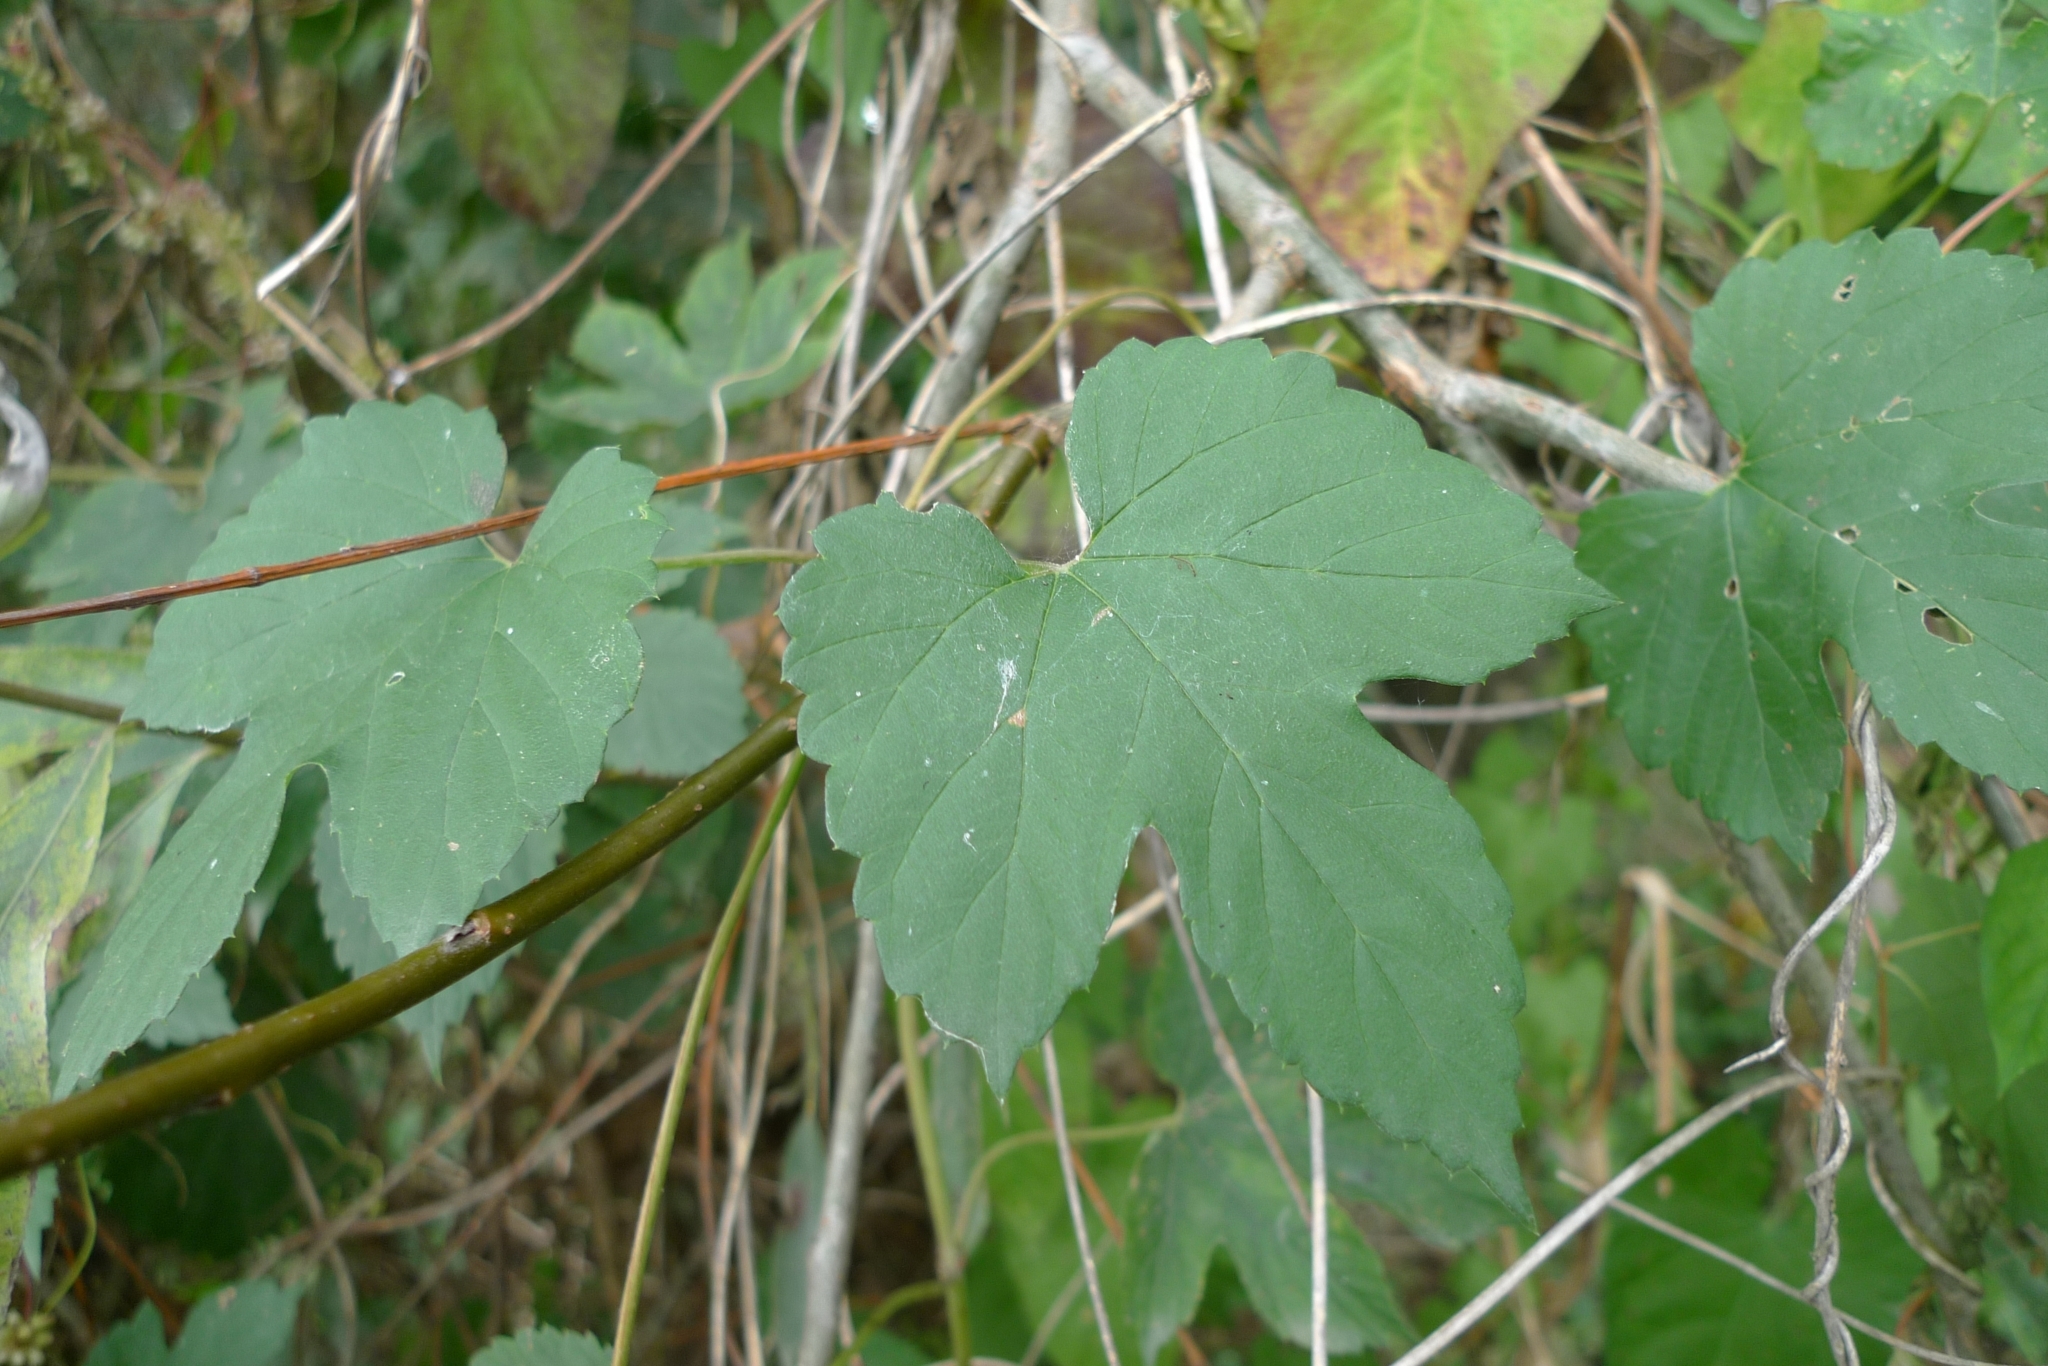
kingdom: Plantae
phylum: Tracheophyta
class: Magnoliopsida
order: Rosales
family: Cannabaceae
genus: Humulus
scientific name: Humulus lupulus
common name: Hop
